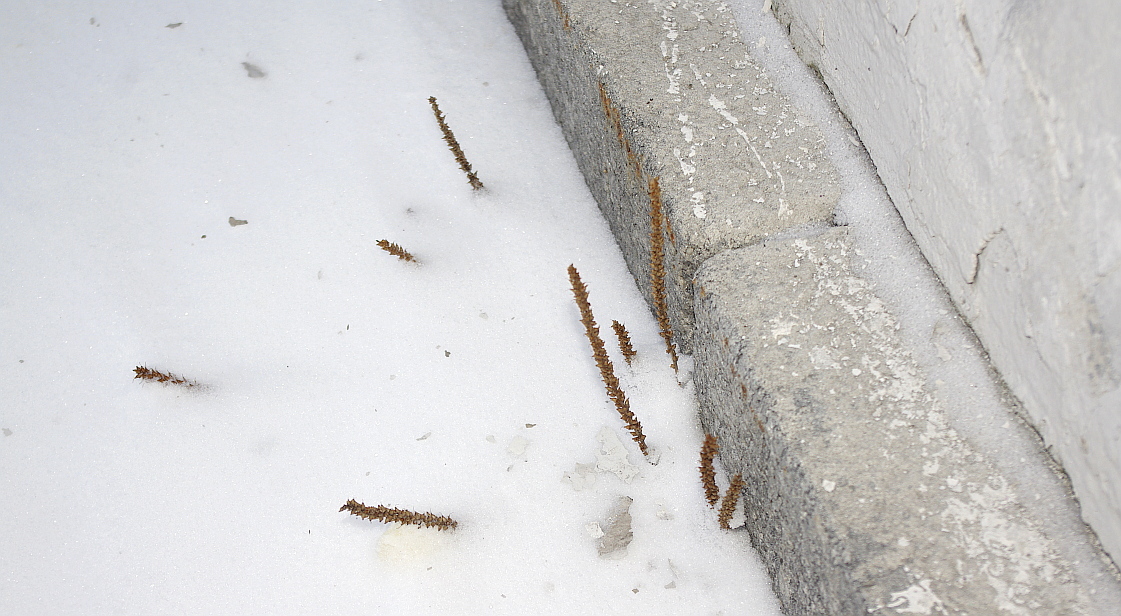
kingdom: Plantae
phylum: Tracheophyta
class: Magnoliopsida
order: Lamiales
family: Plantaginaceae
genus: Plantago
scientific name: Plantago major
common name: Common plantain
